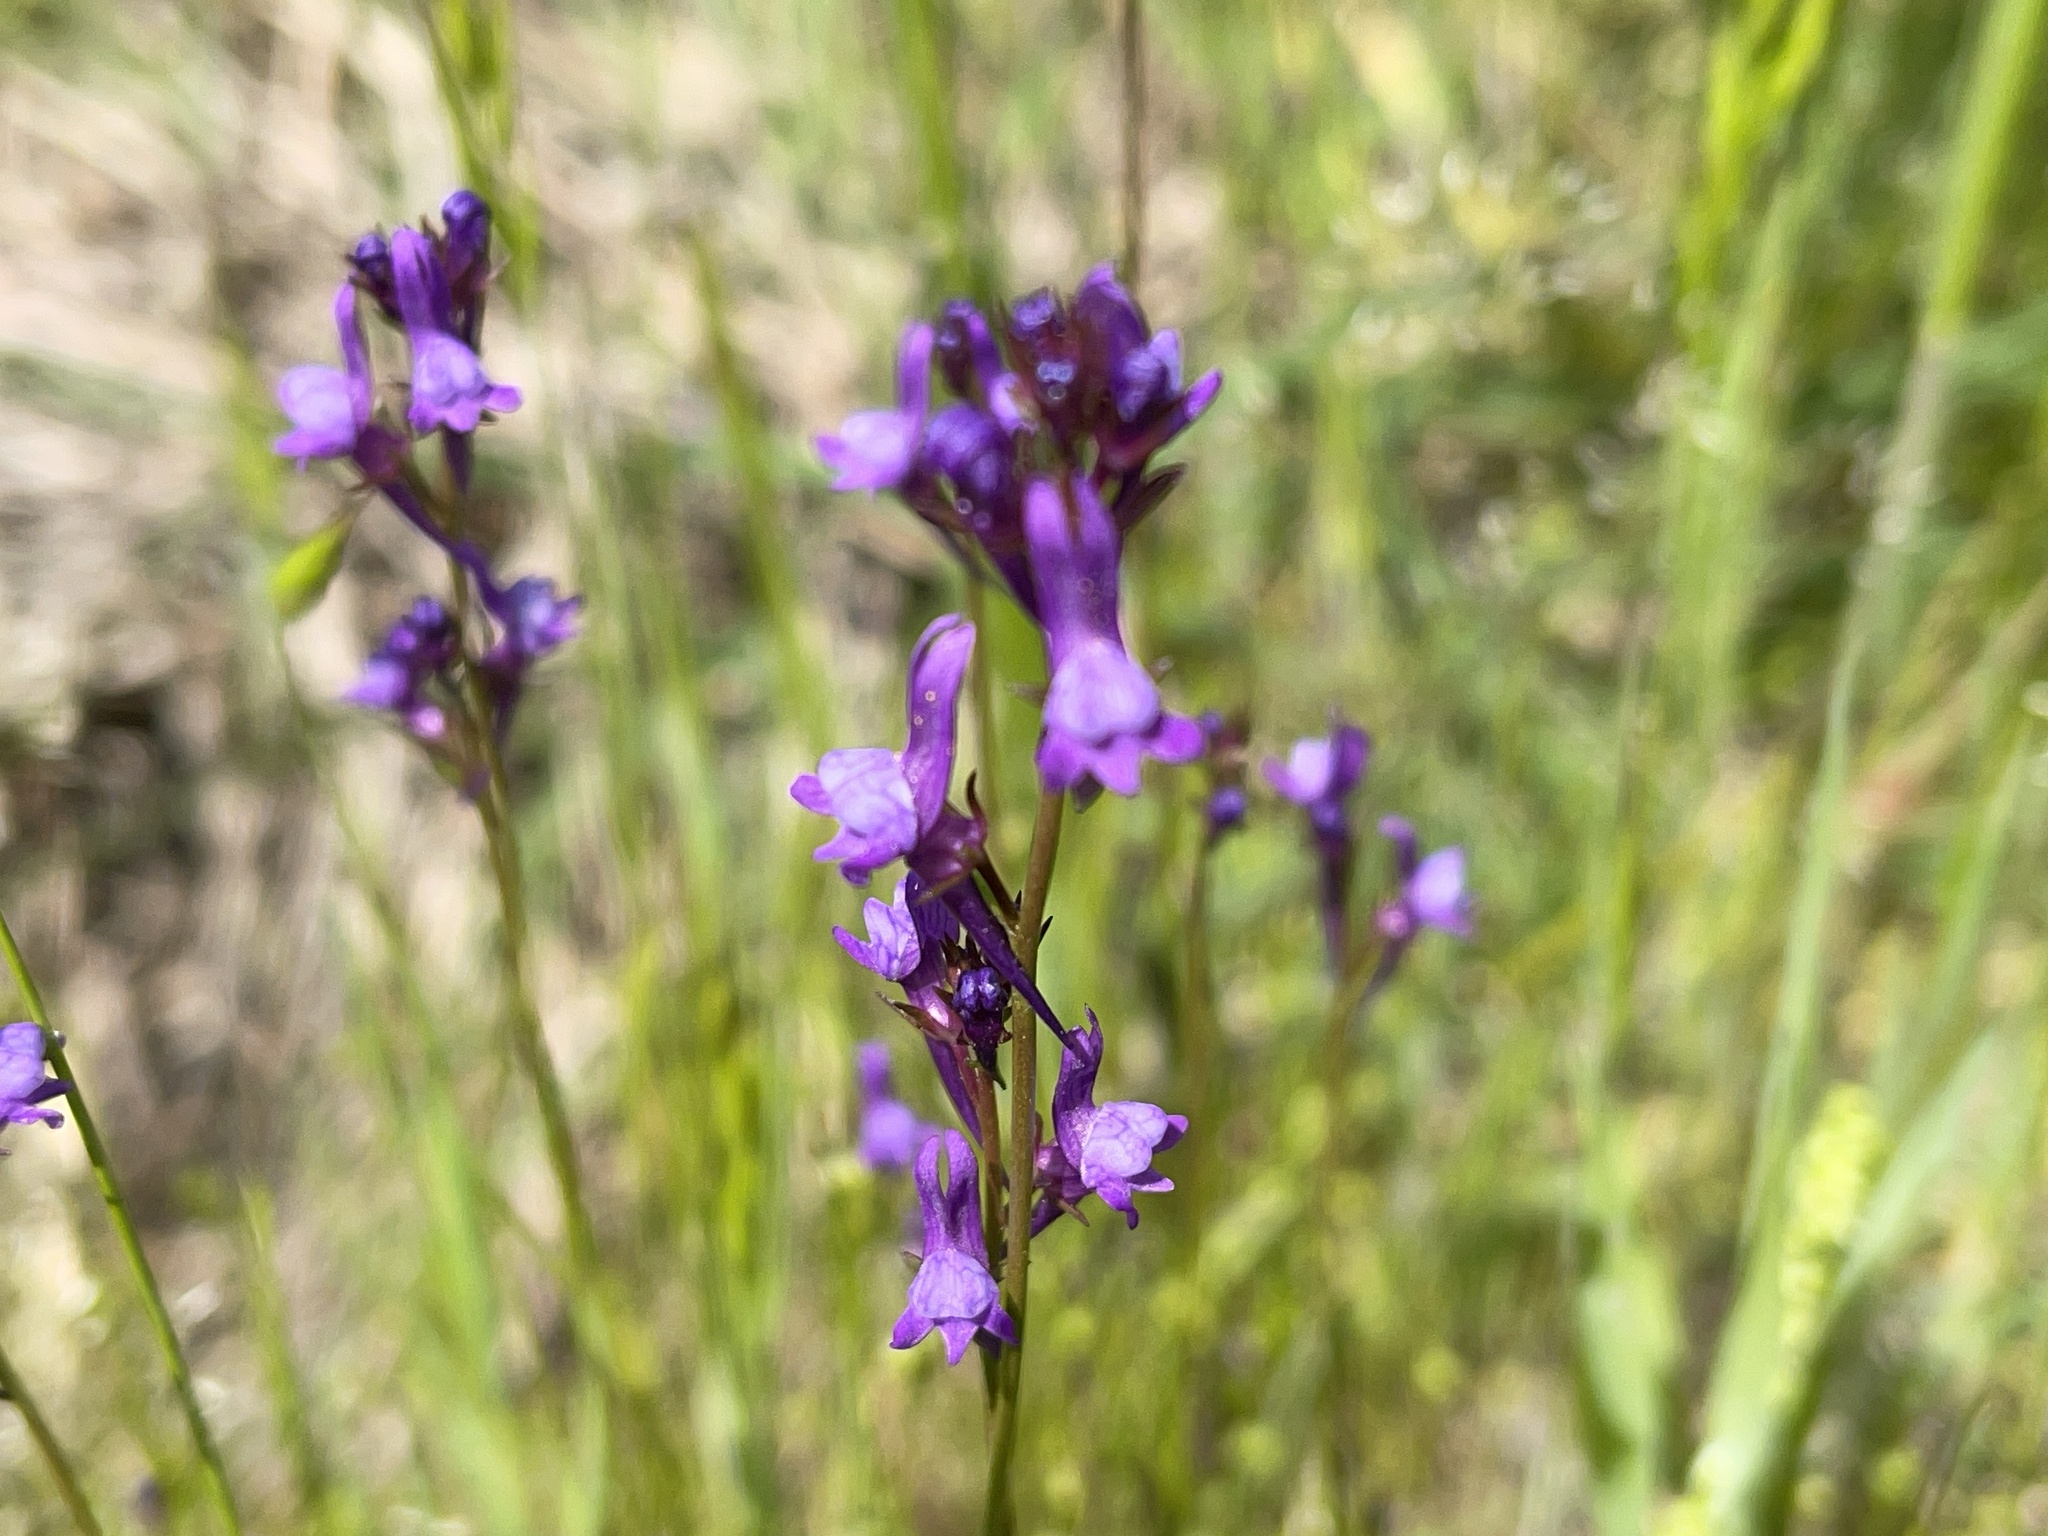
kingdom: Plantae
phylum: Tracheophyta
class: Magnoliopsida
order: Lamiales
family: Plantaginaceae
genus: Linaria
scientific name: Linaria pelisseriana
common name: Jersey toadflax
